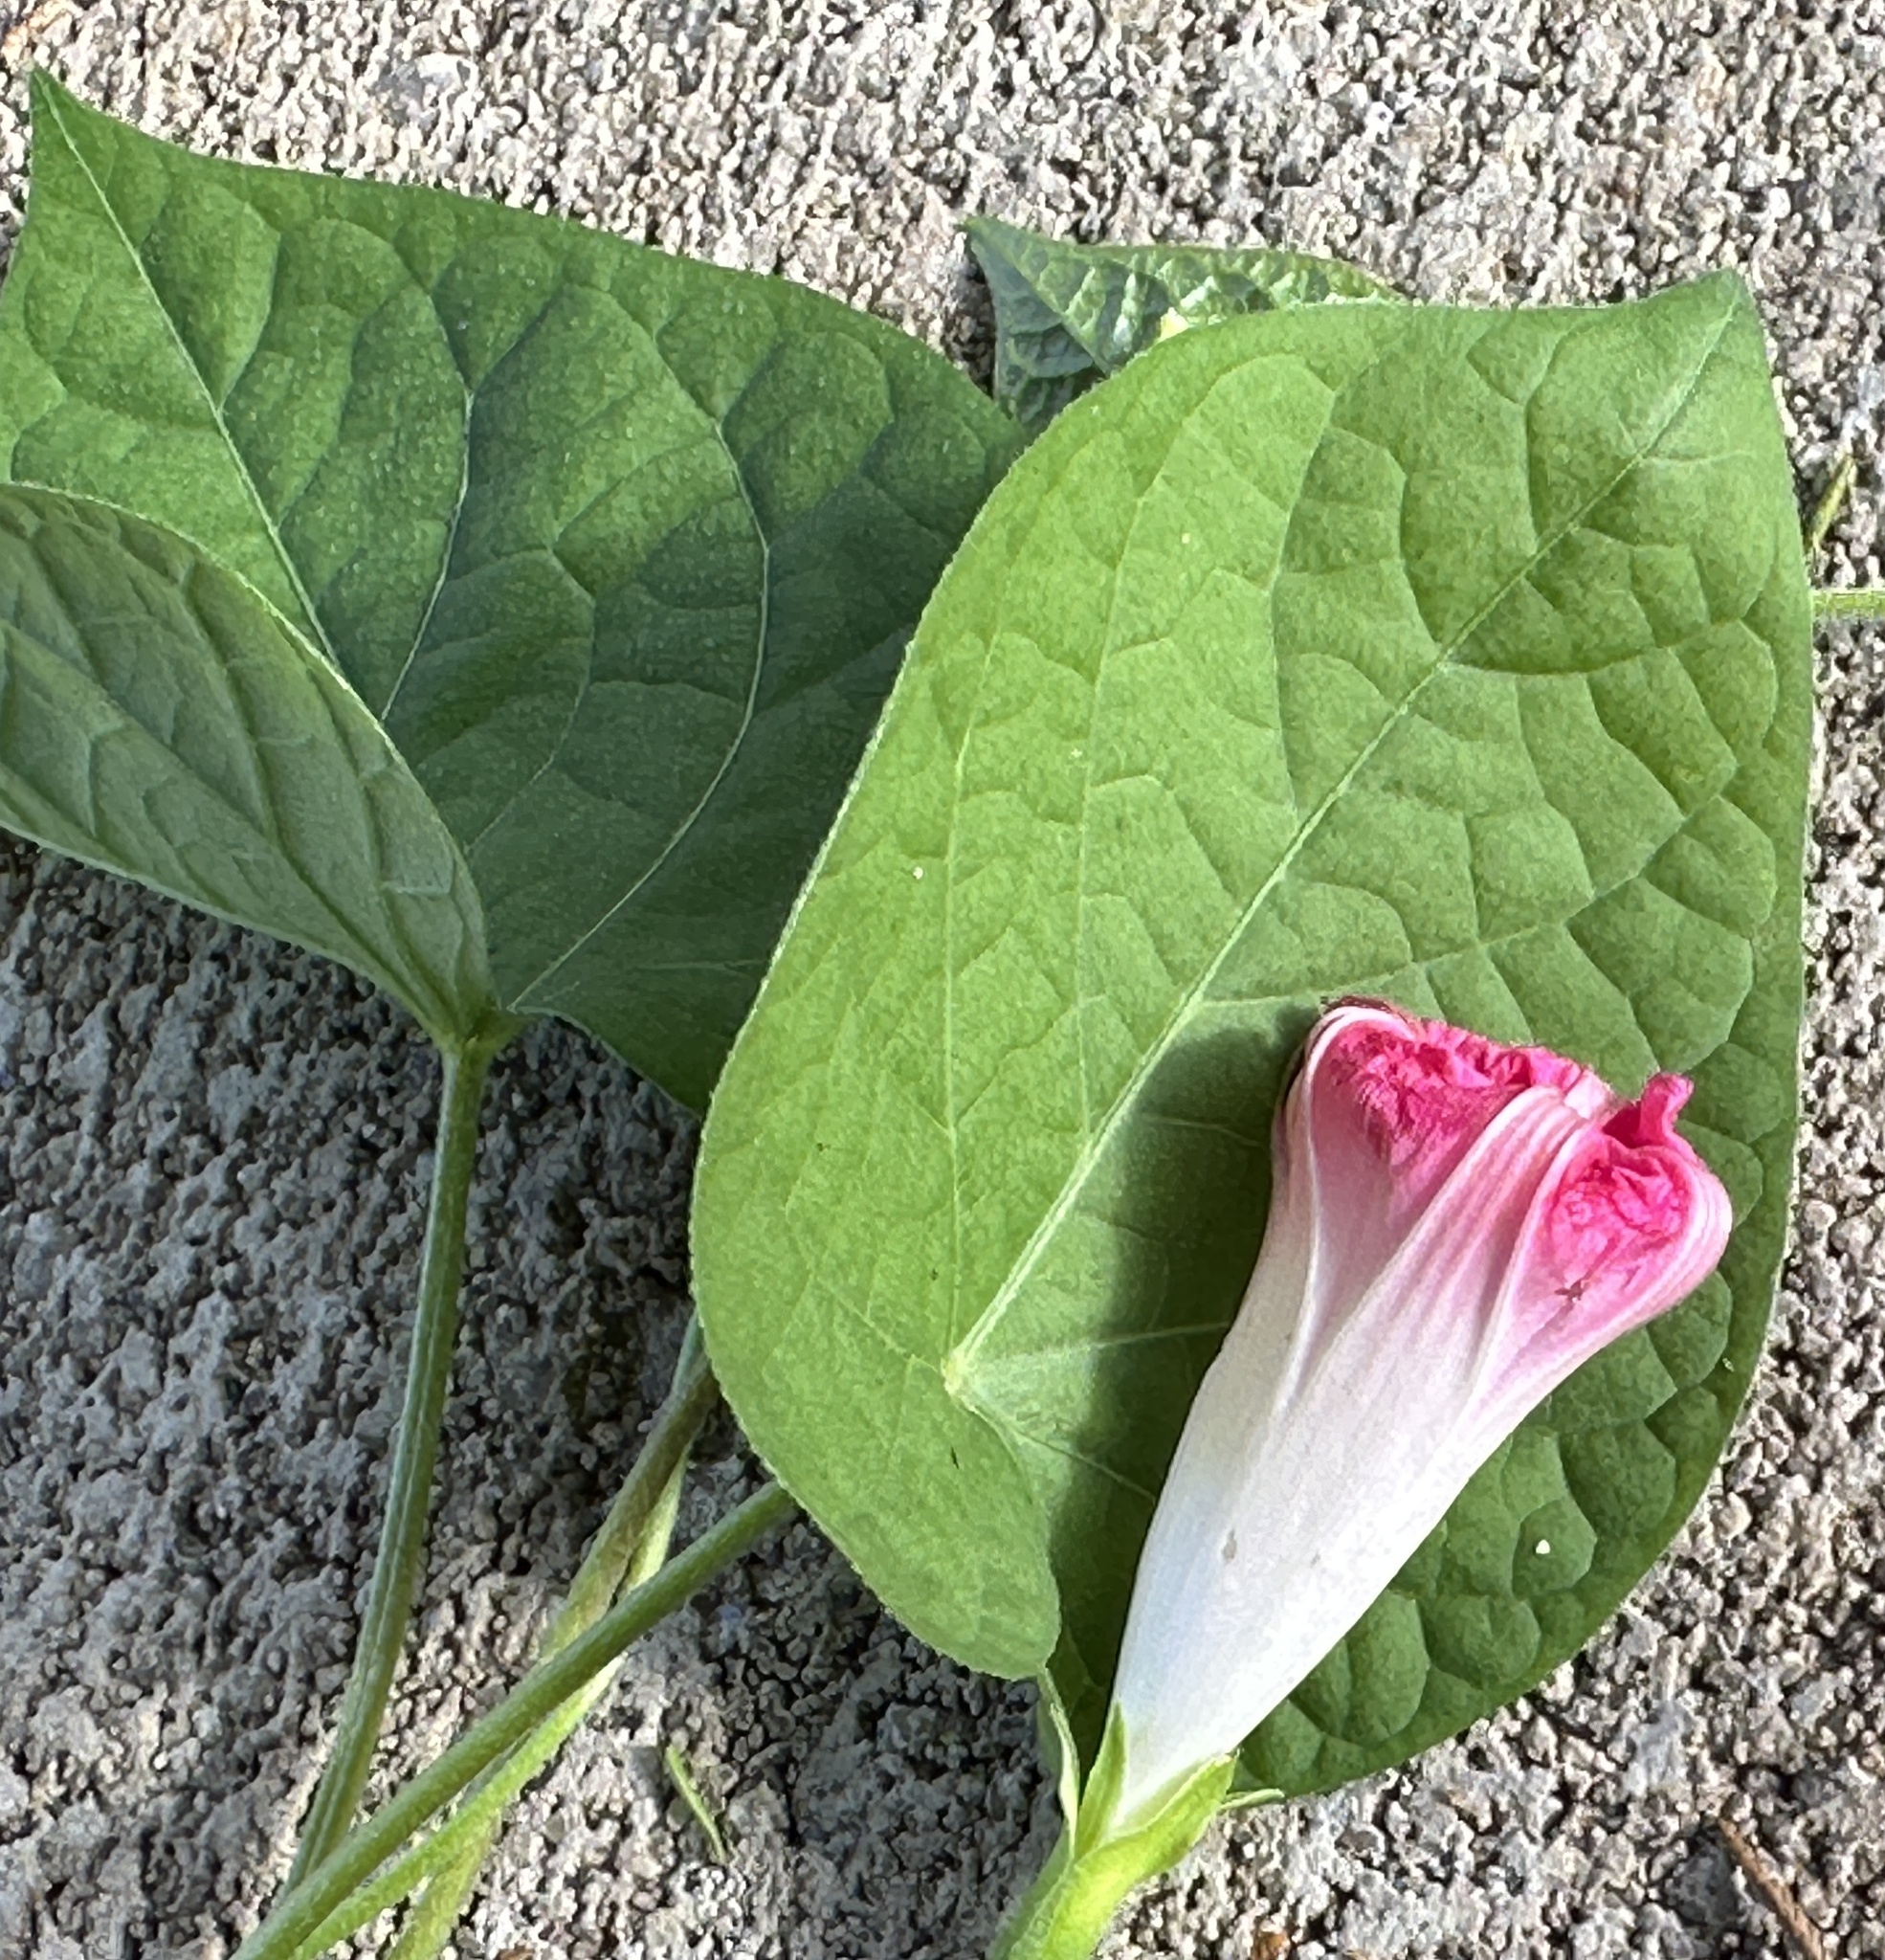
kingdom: Plantae
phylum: Tracheophyta
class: Magnoliopsida
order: Solanales
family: Convolvulaceae
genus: Ipomoea
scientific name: Ipomoea purpurea
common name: Common morning-glory
